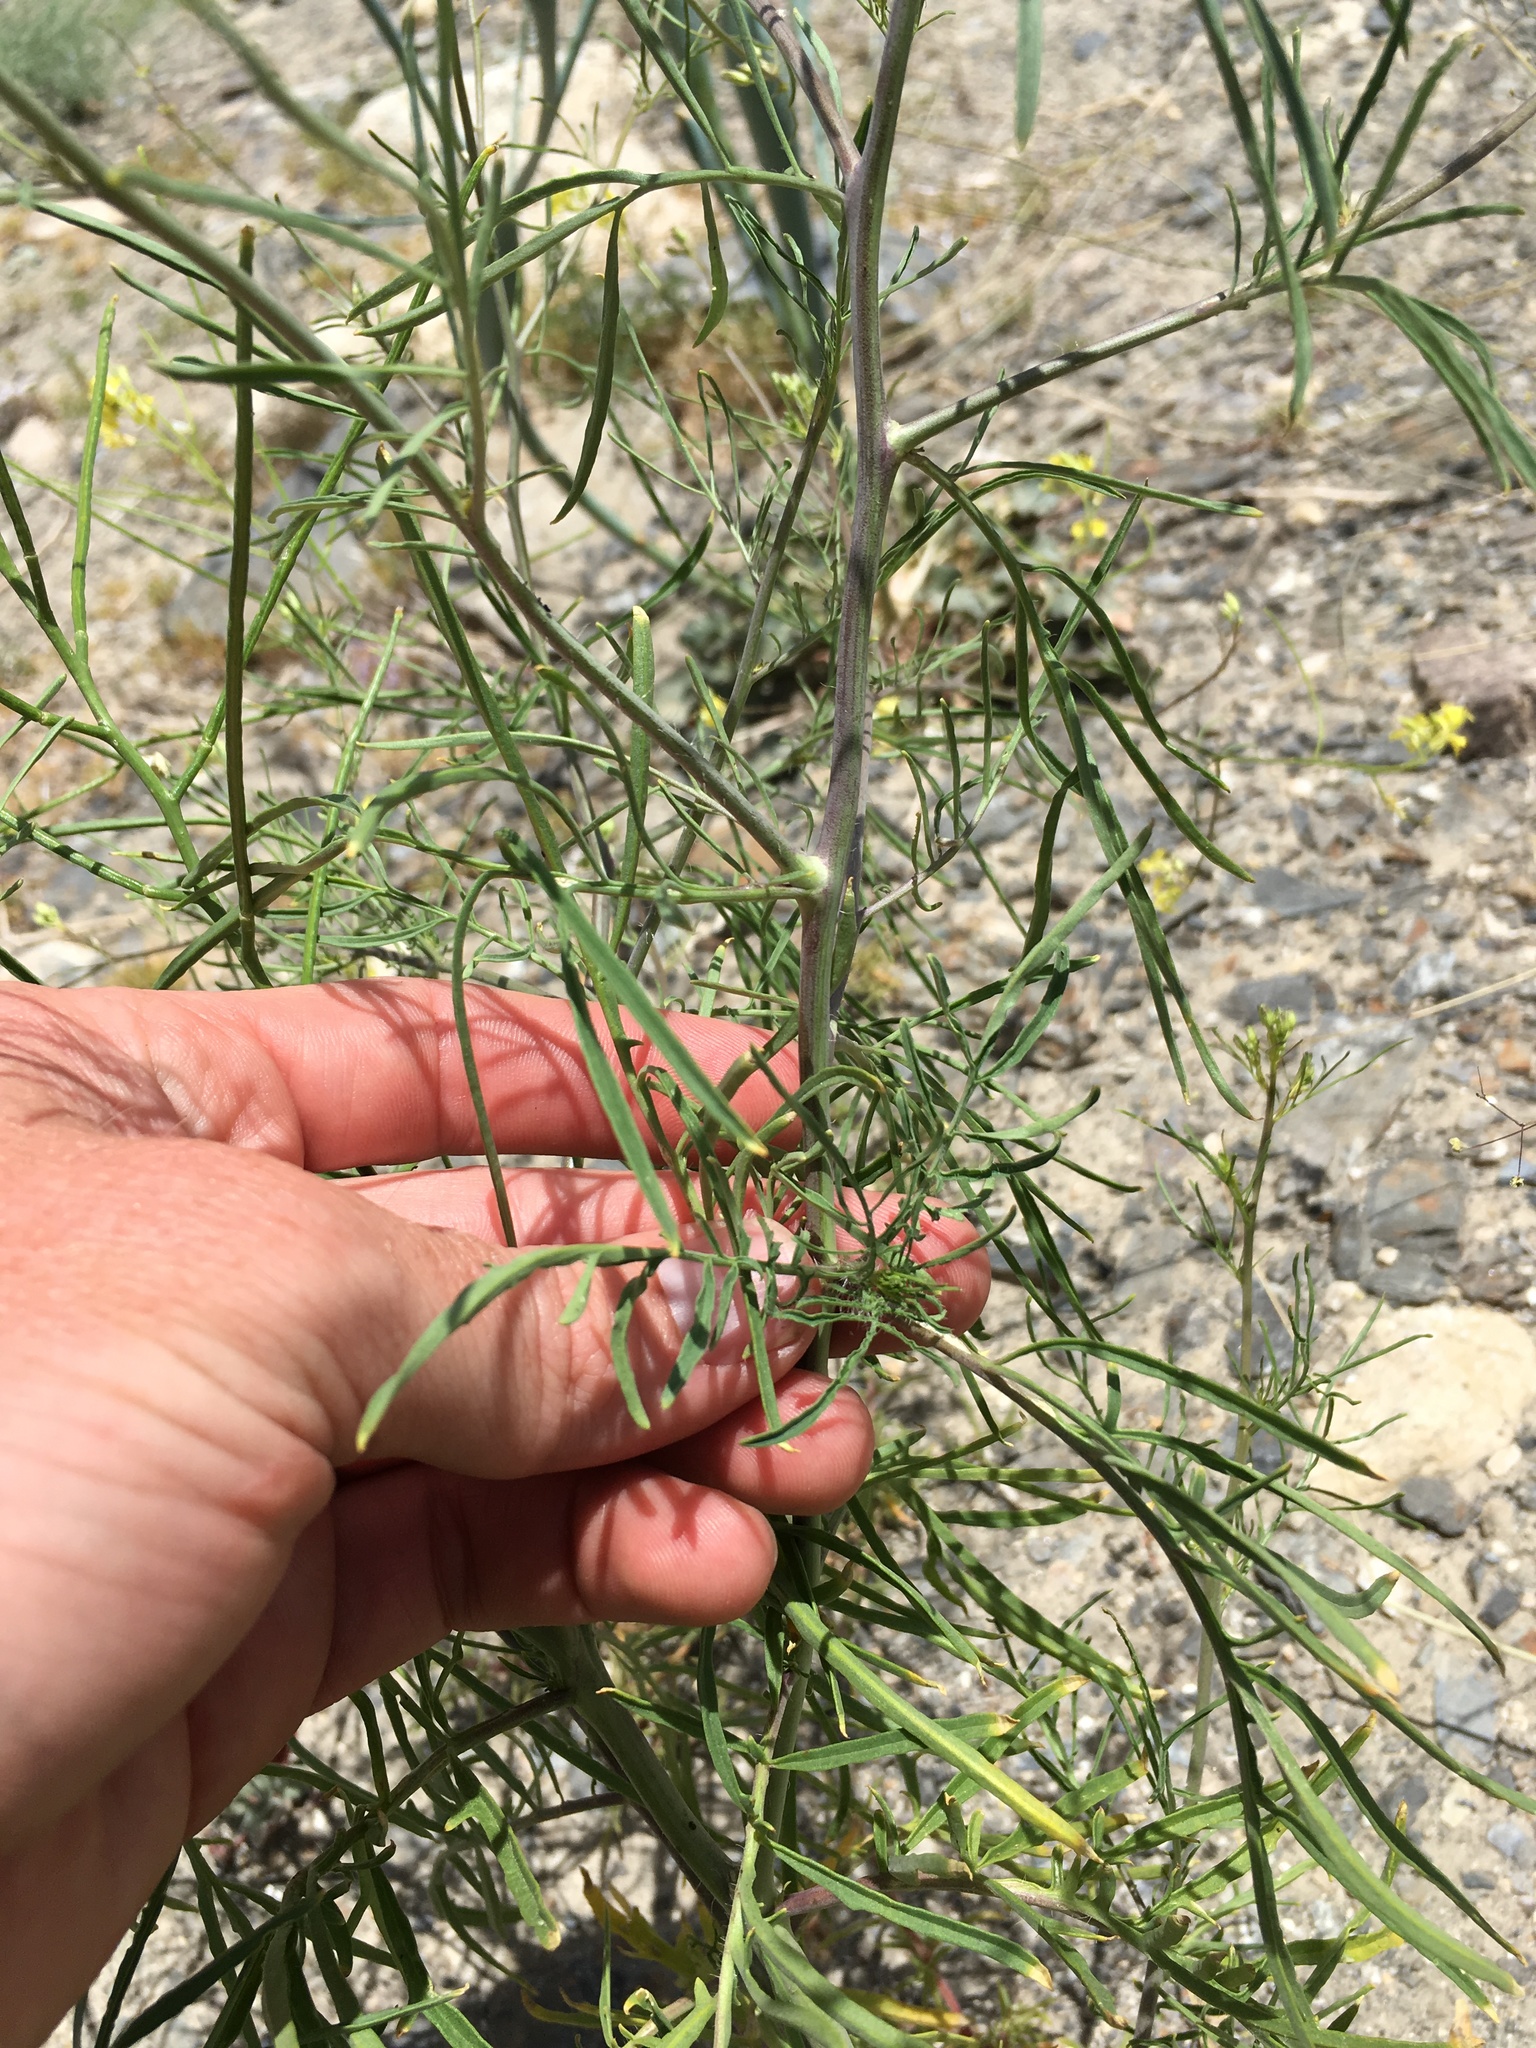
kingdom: Plantae
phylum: Tracheophyta
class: Magnoliopsida
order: Brassicales
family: Brassicaceae
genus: Sisymbrium
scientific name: Sisymbrium altissimum
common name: Tall rocket
